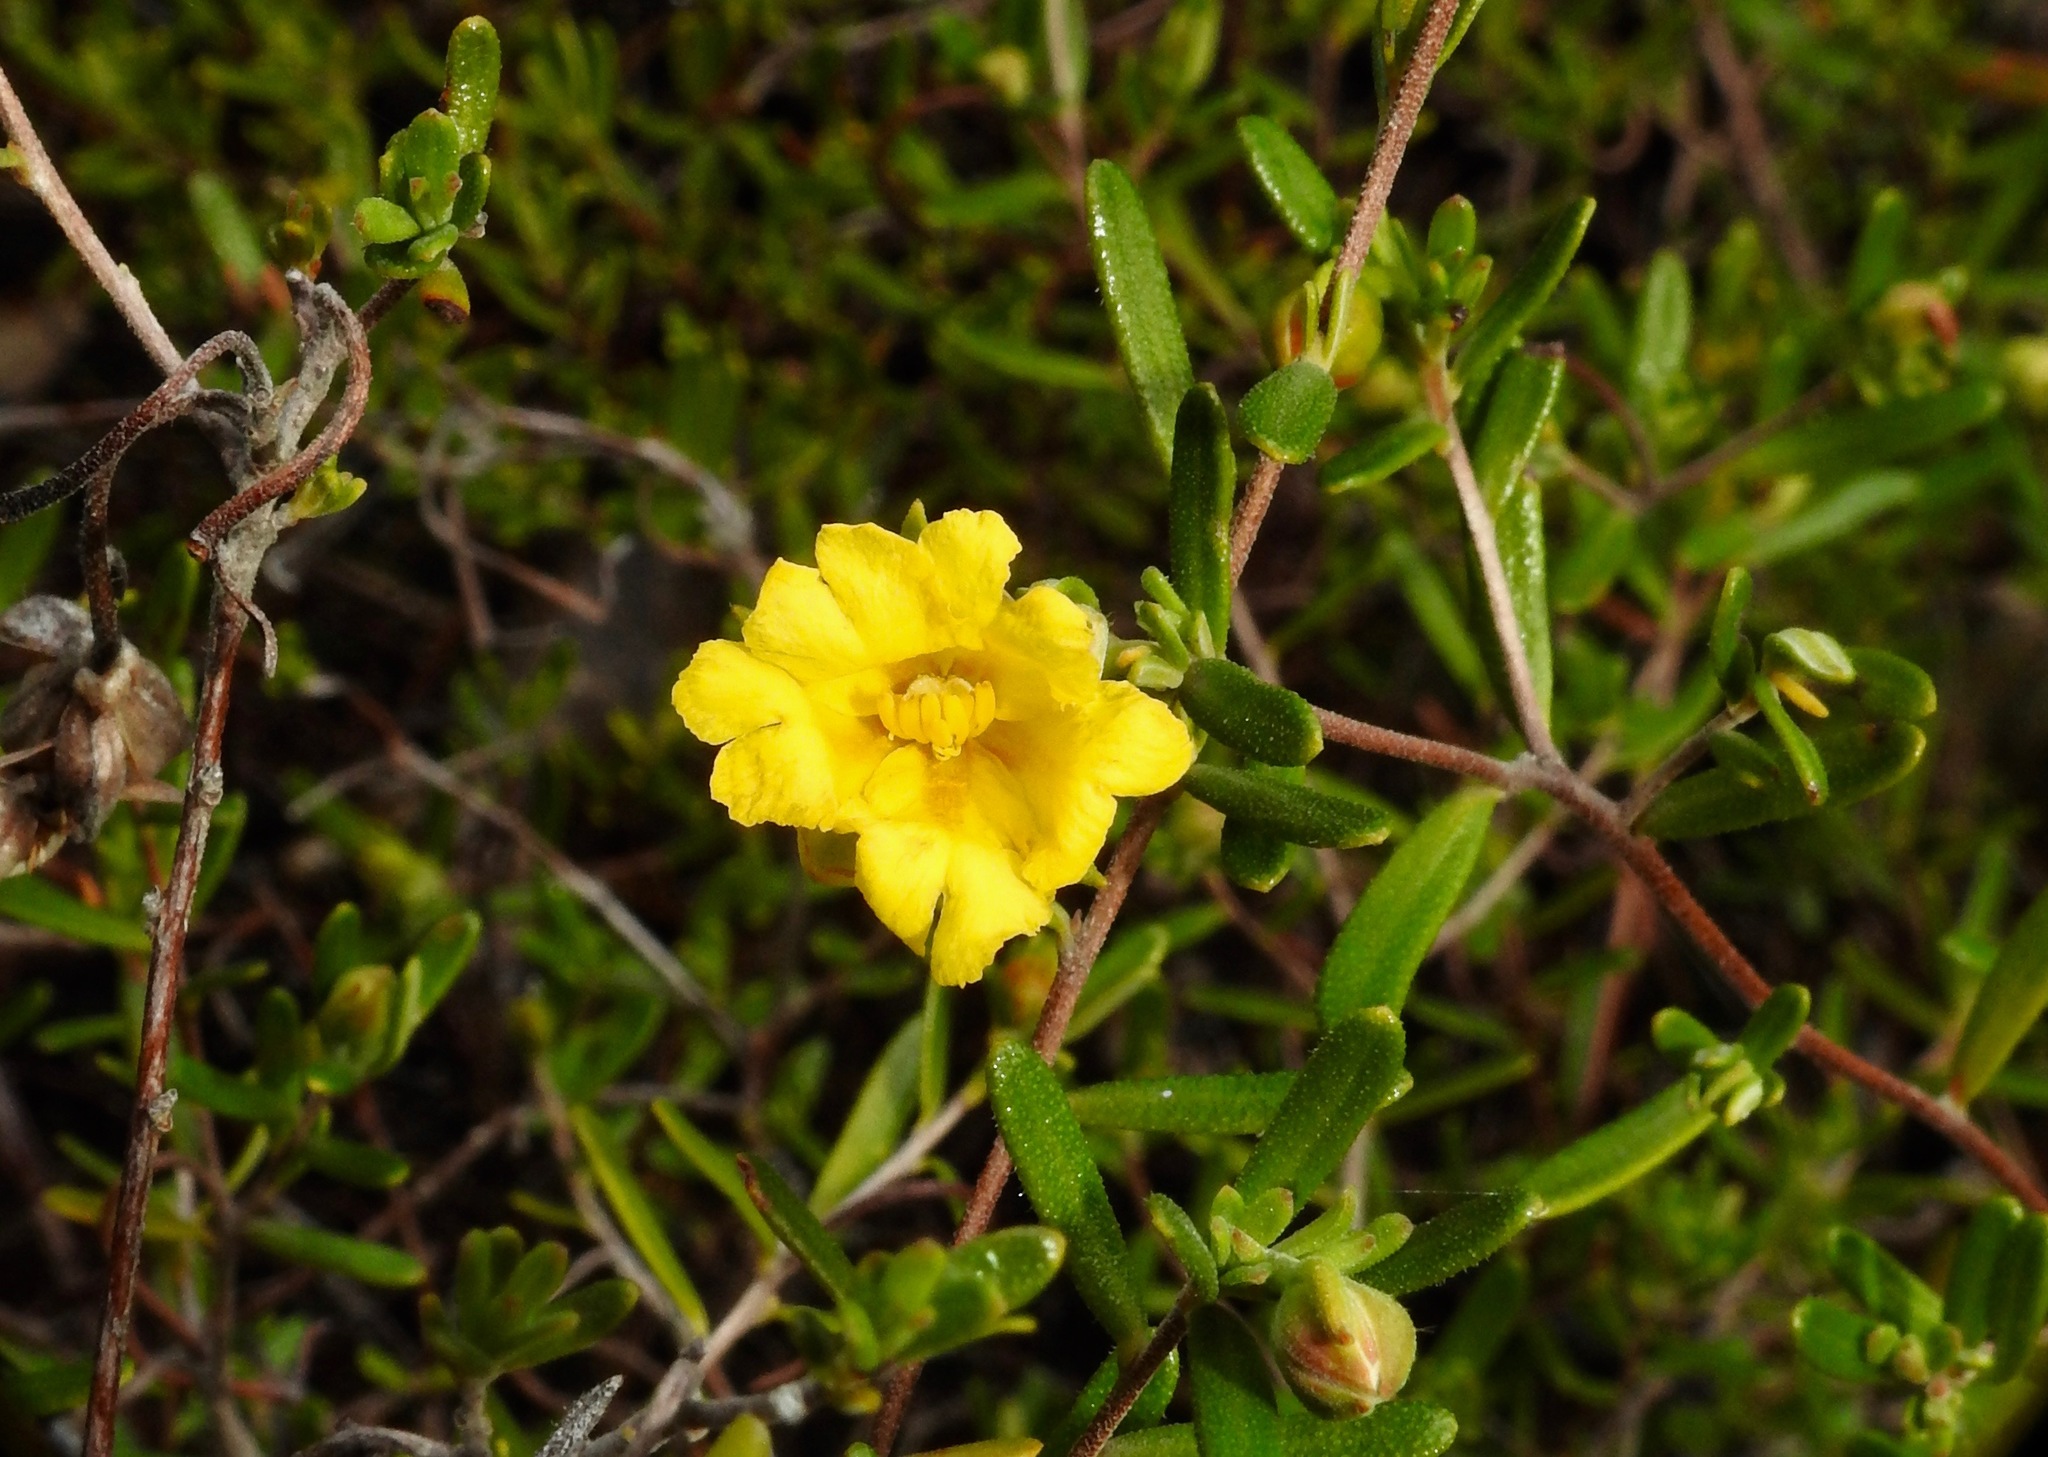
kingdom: Plantae
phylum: Tracheophyta
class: Magnoliopsida
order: Dilleniales
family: Dilleniaceae
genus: Hibbertia
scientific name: Hibbertia hypericoides
